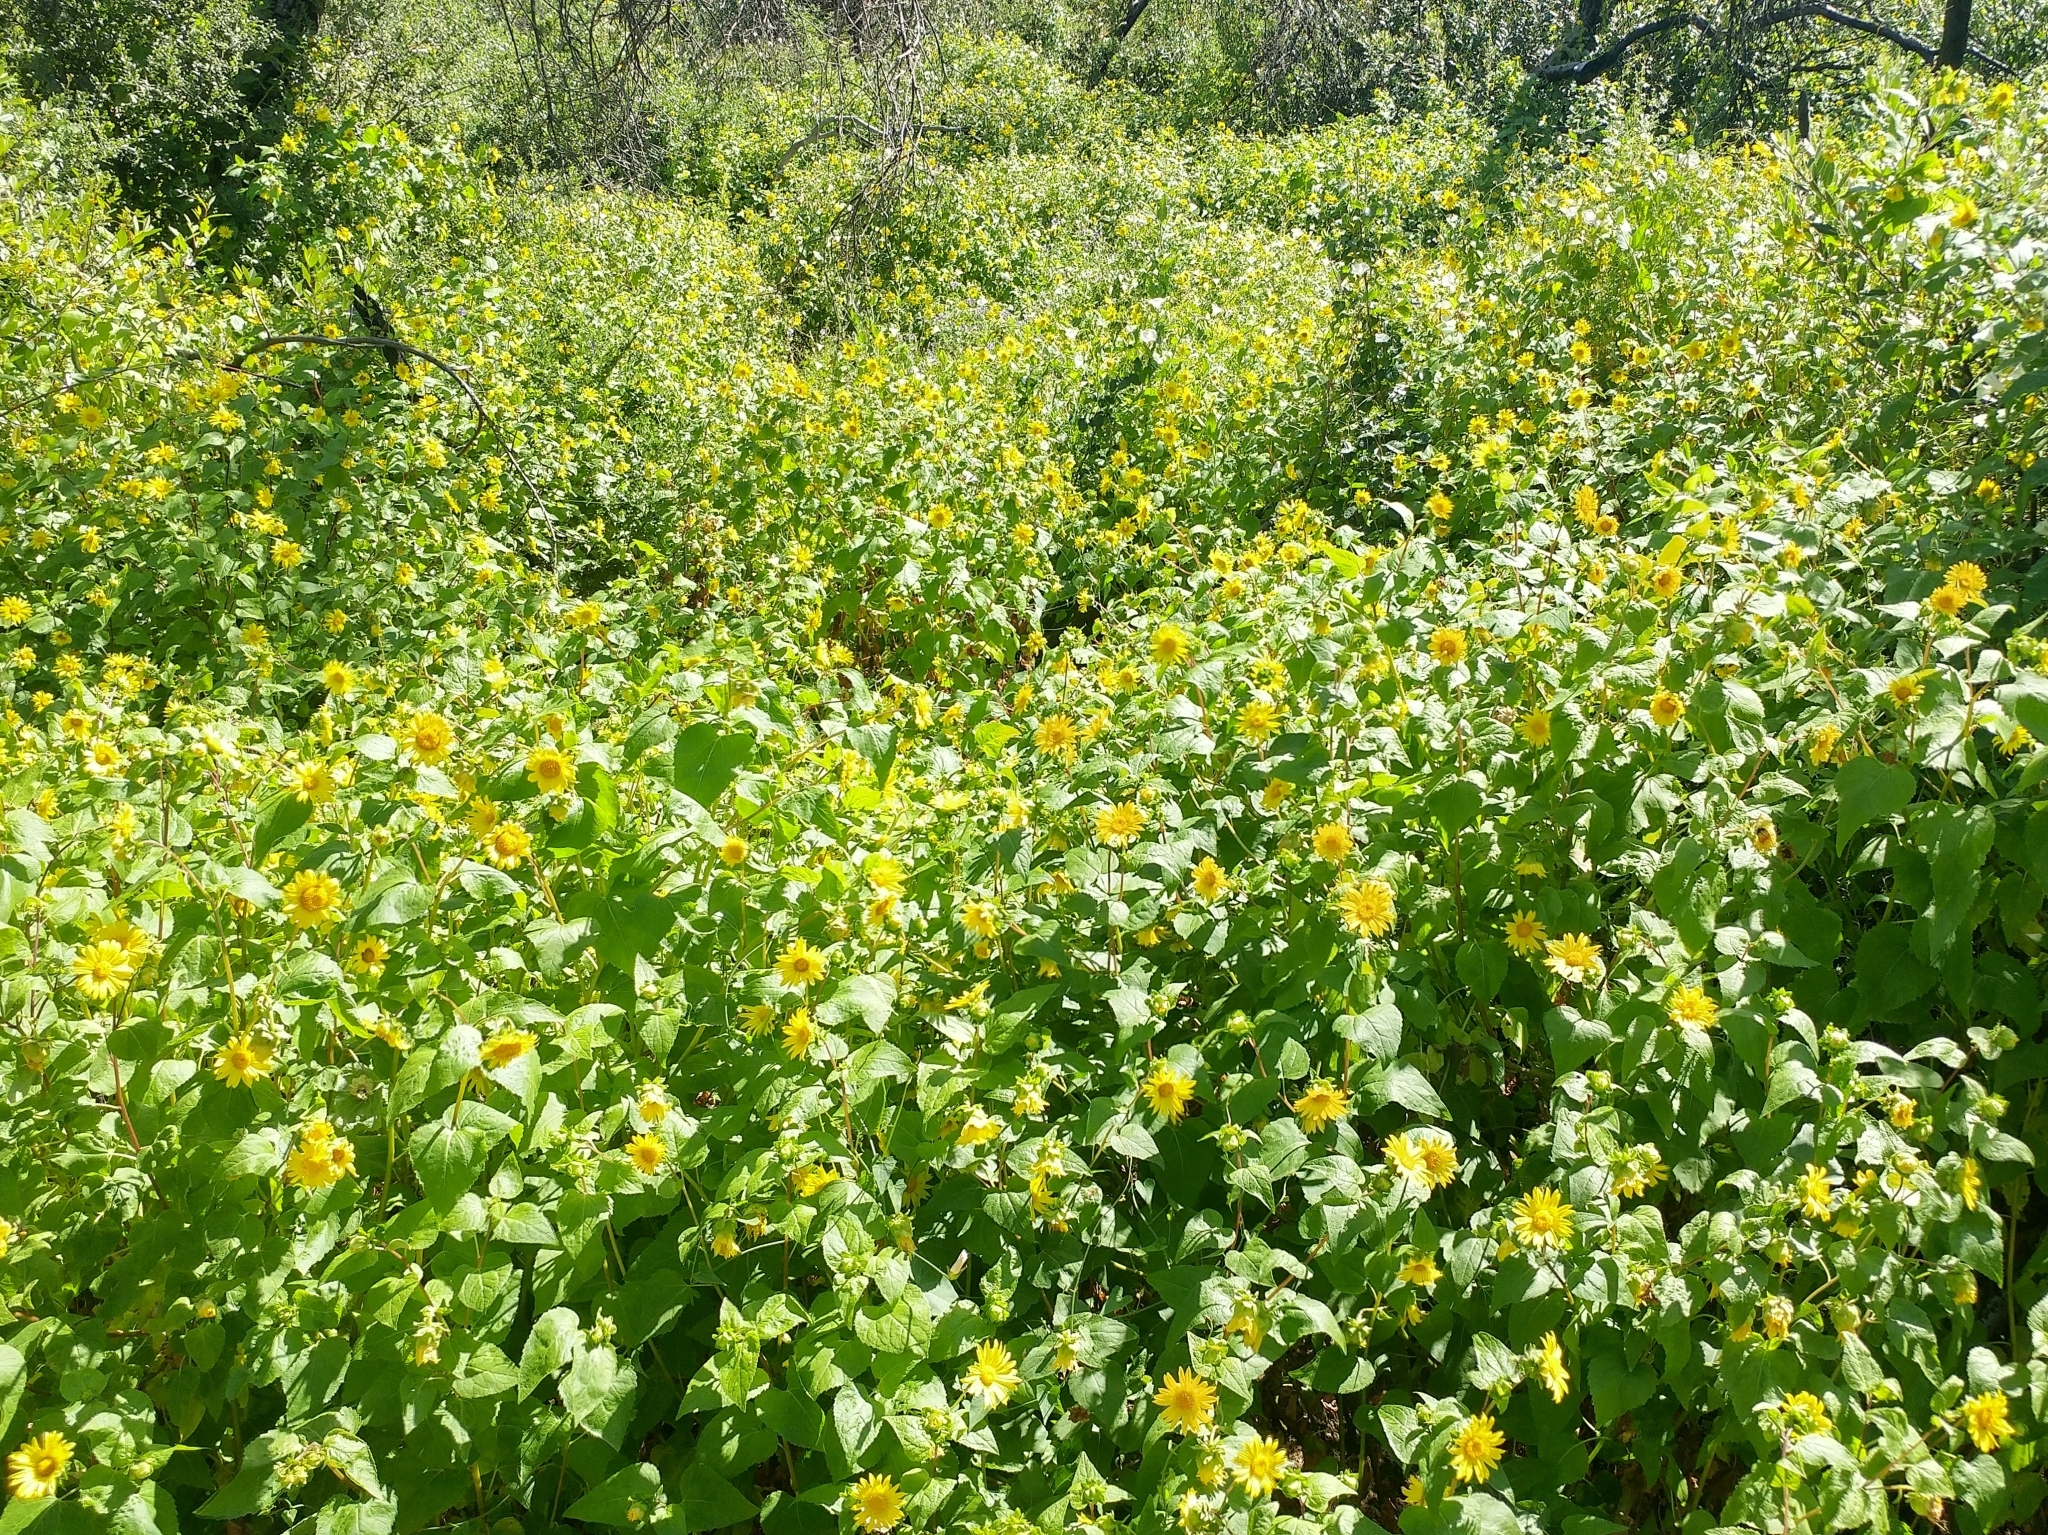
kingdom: Plantae
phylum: Tracheophyta
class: Magnoliopsida
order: Asterales
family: Asteraceae
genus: Venegasia
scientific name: Venegasia carpesioides
